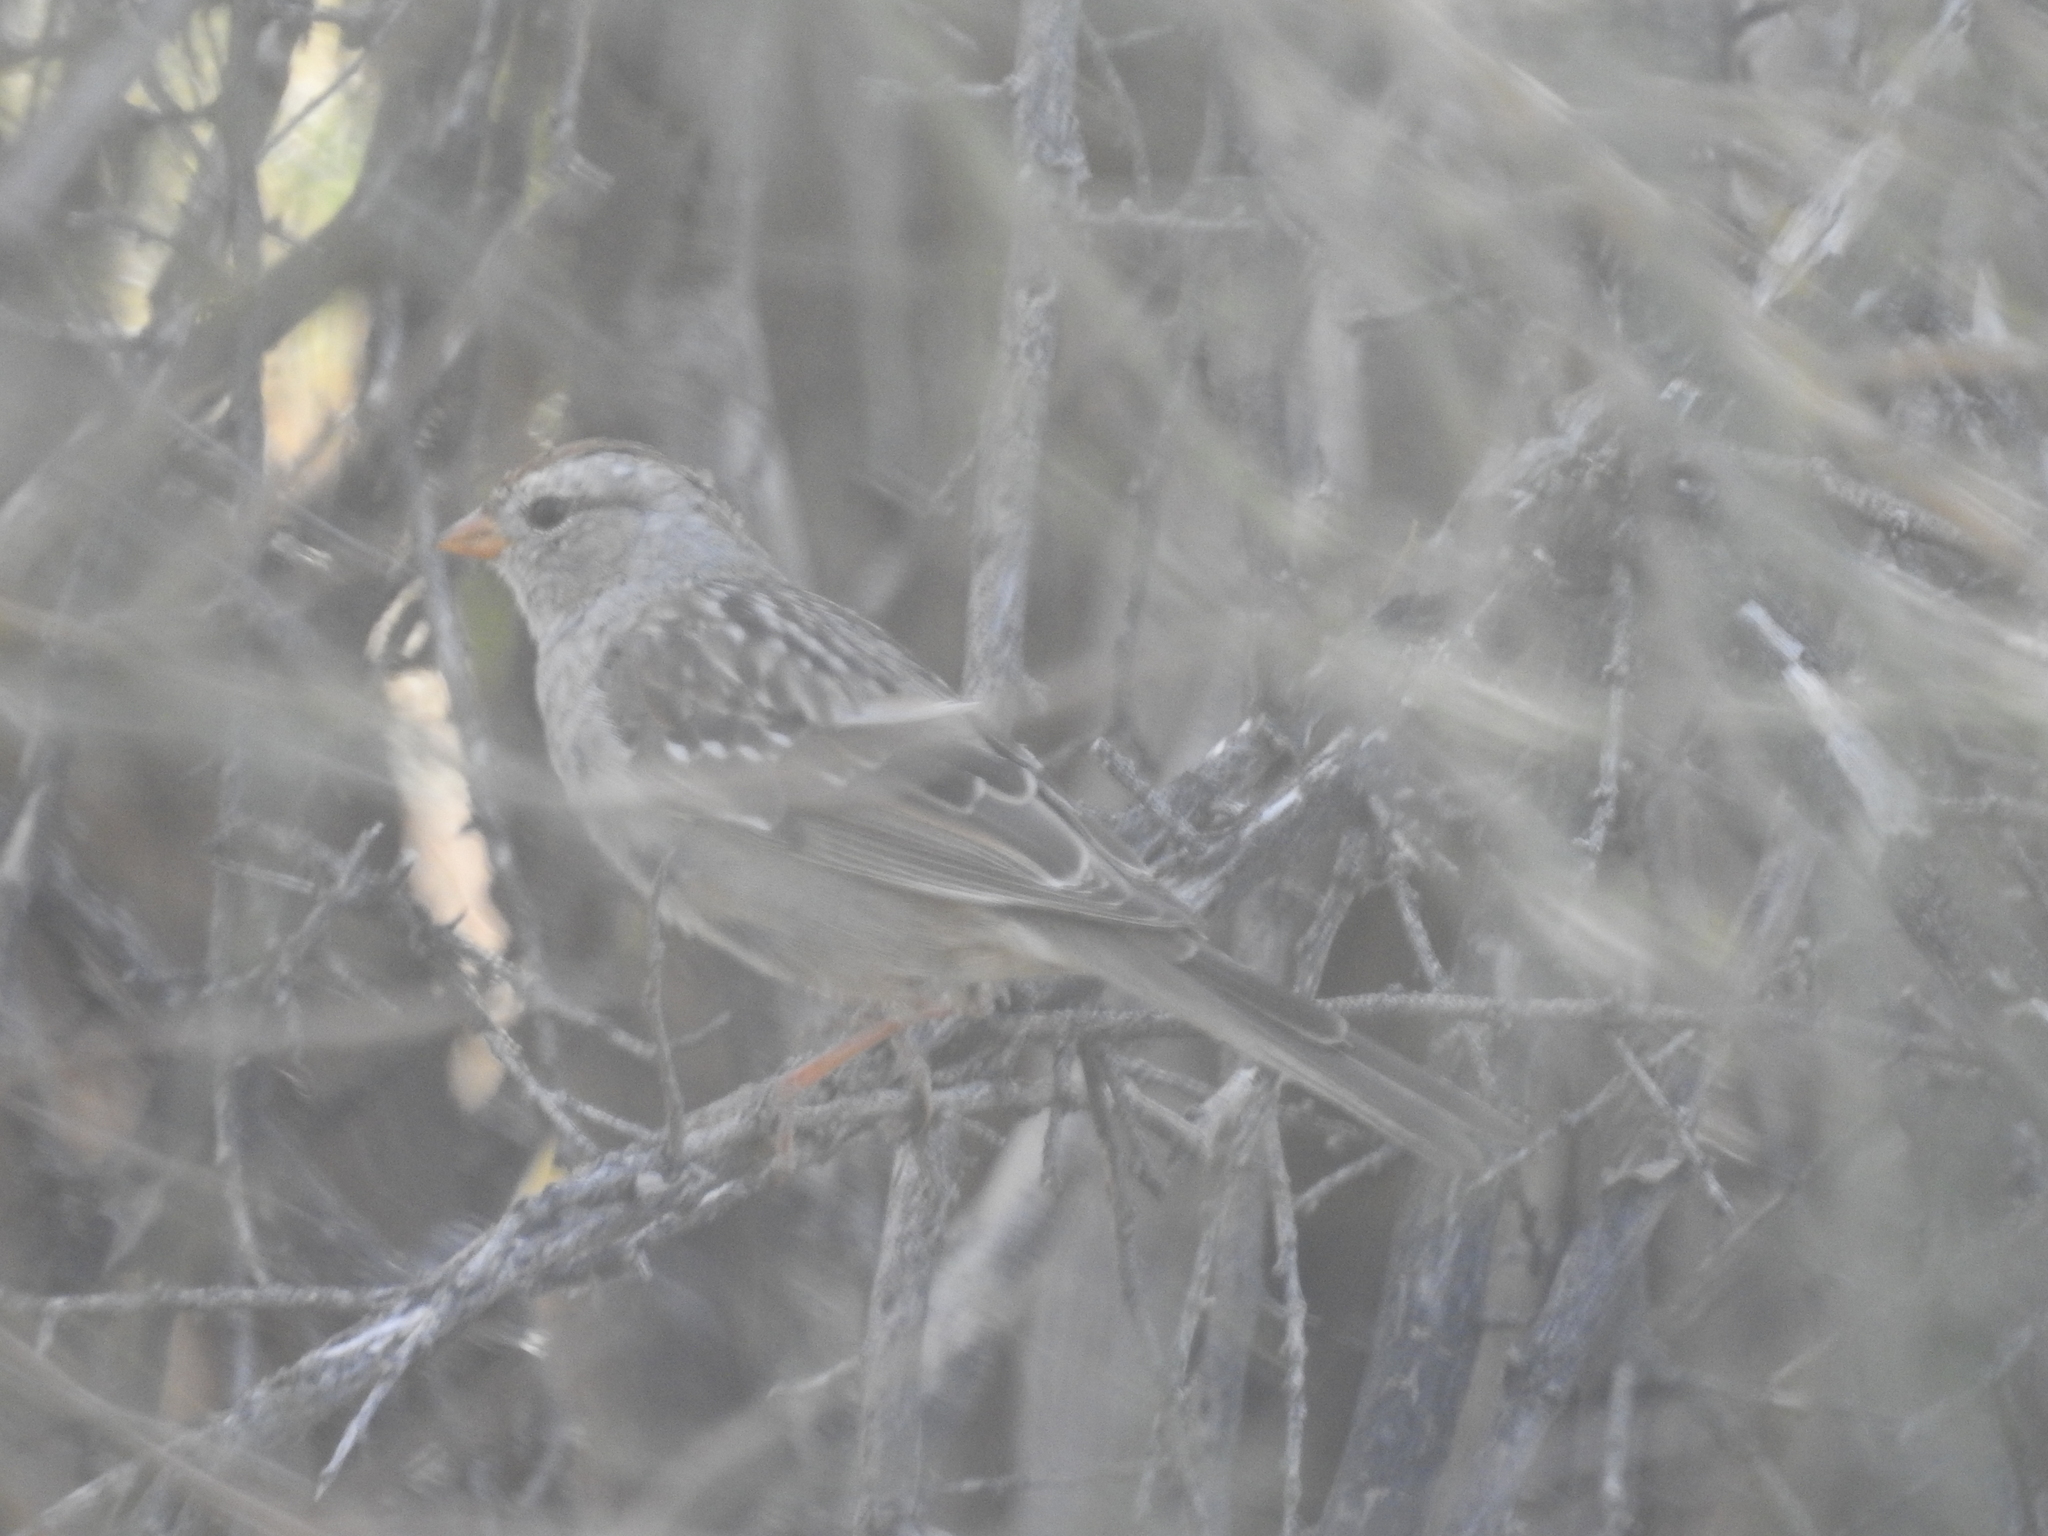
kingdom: Animalia
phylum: Chordata
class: Aves
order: Passeriformes
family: Passerellidae
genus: Zonotrichia
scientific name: Zonotrichia leucophrys
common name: White-crowned sparrow
